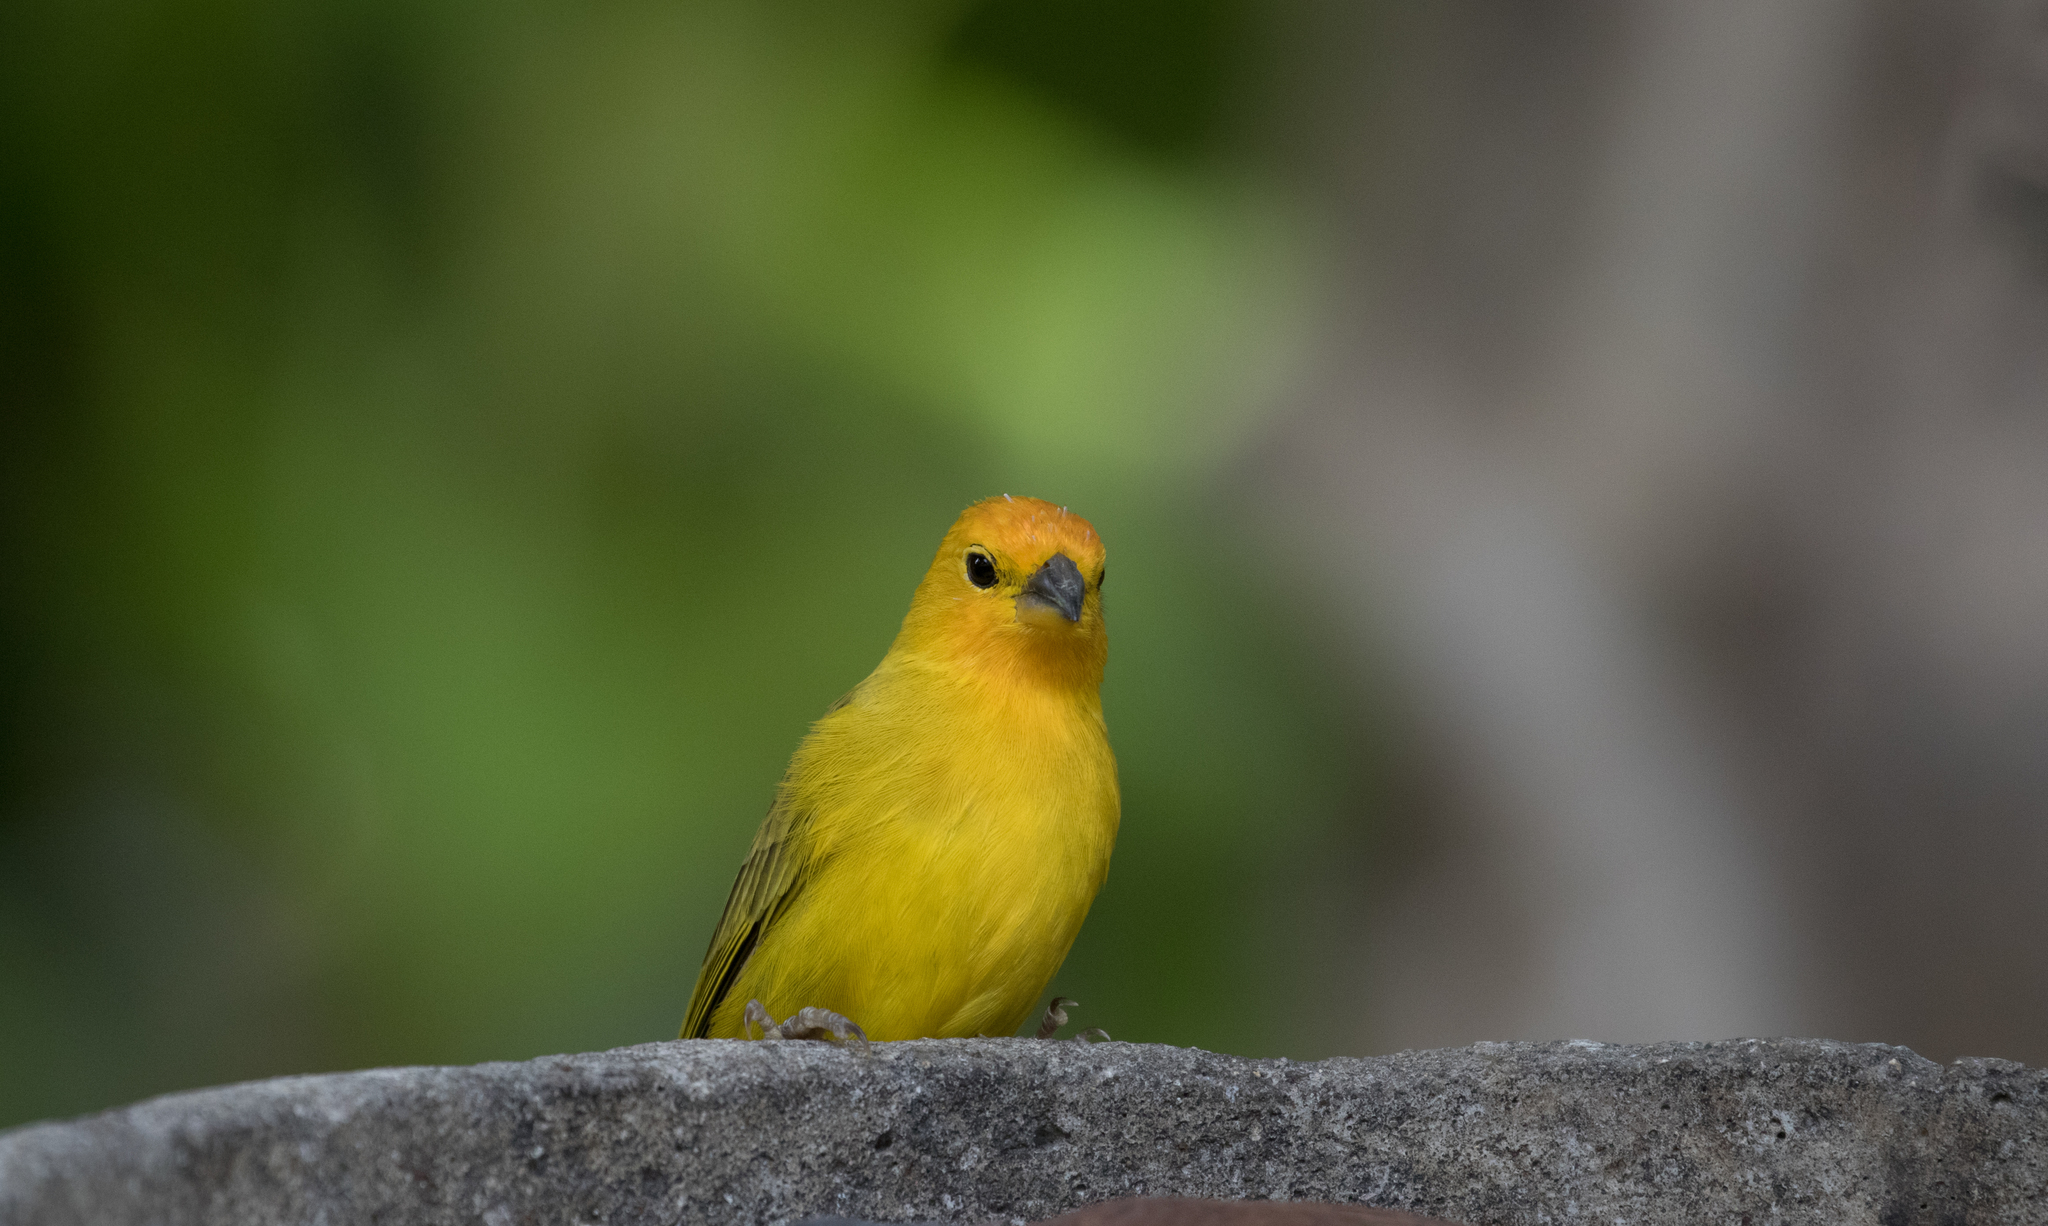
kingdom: Animalia
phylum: Chordata
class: Aves
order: Passeriformes
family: Thraupidae
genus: Sicalis
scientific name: Sicalis flaveola
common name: Saffron finch
